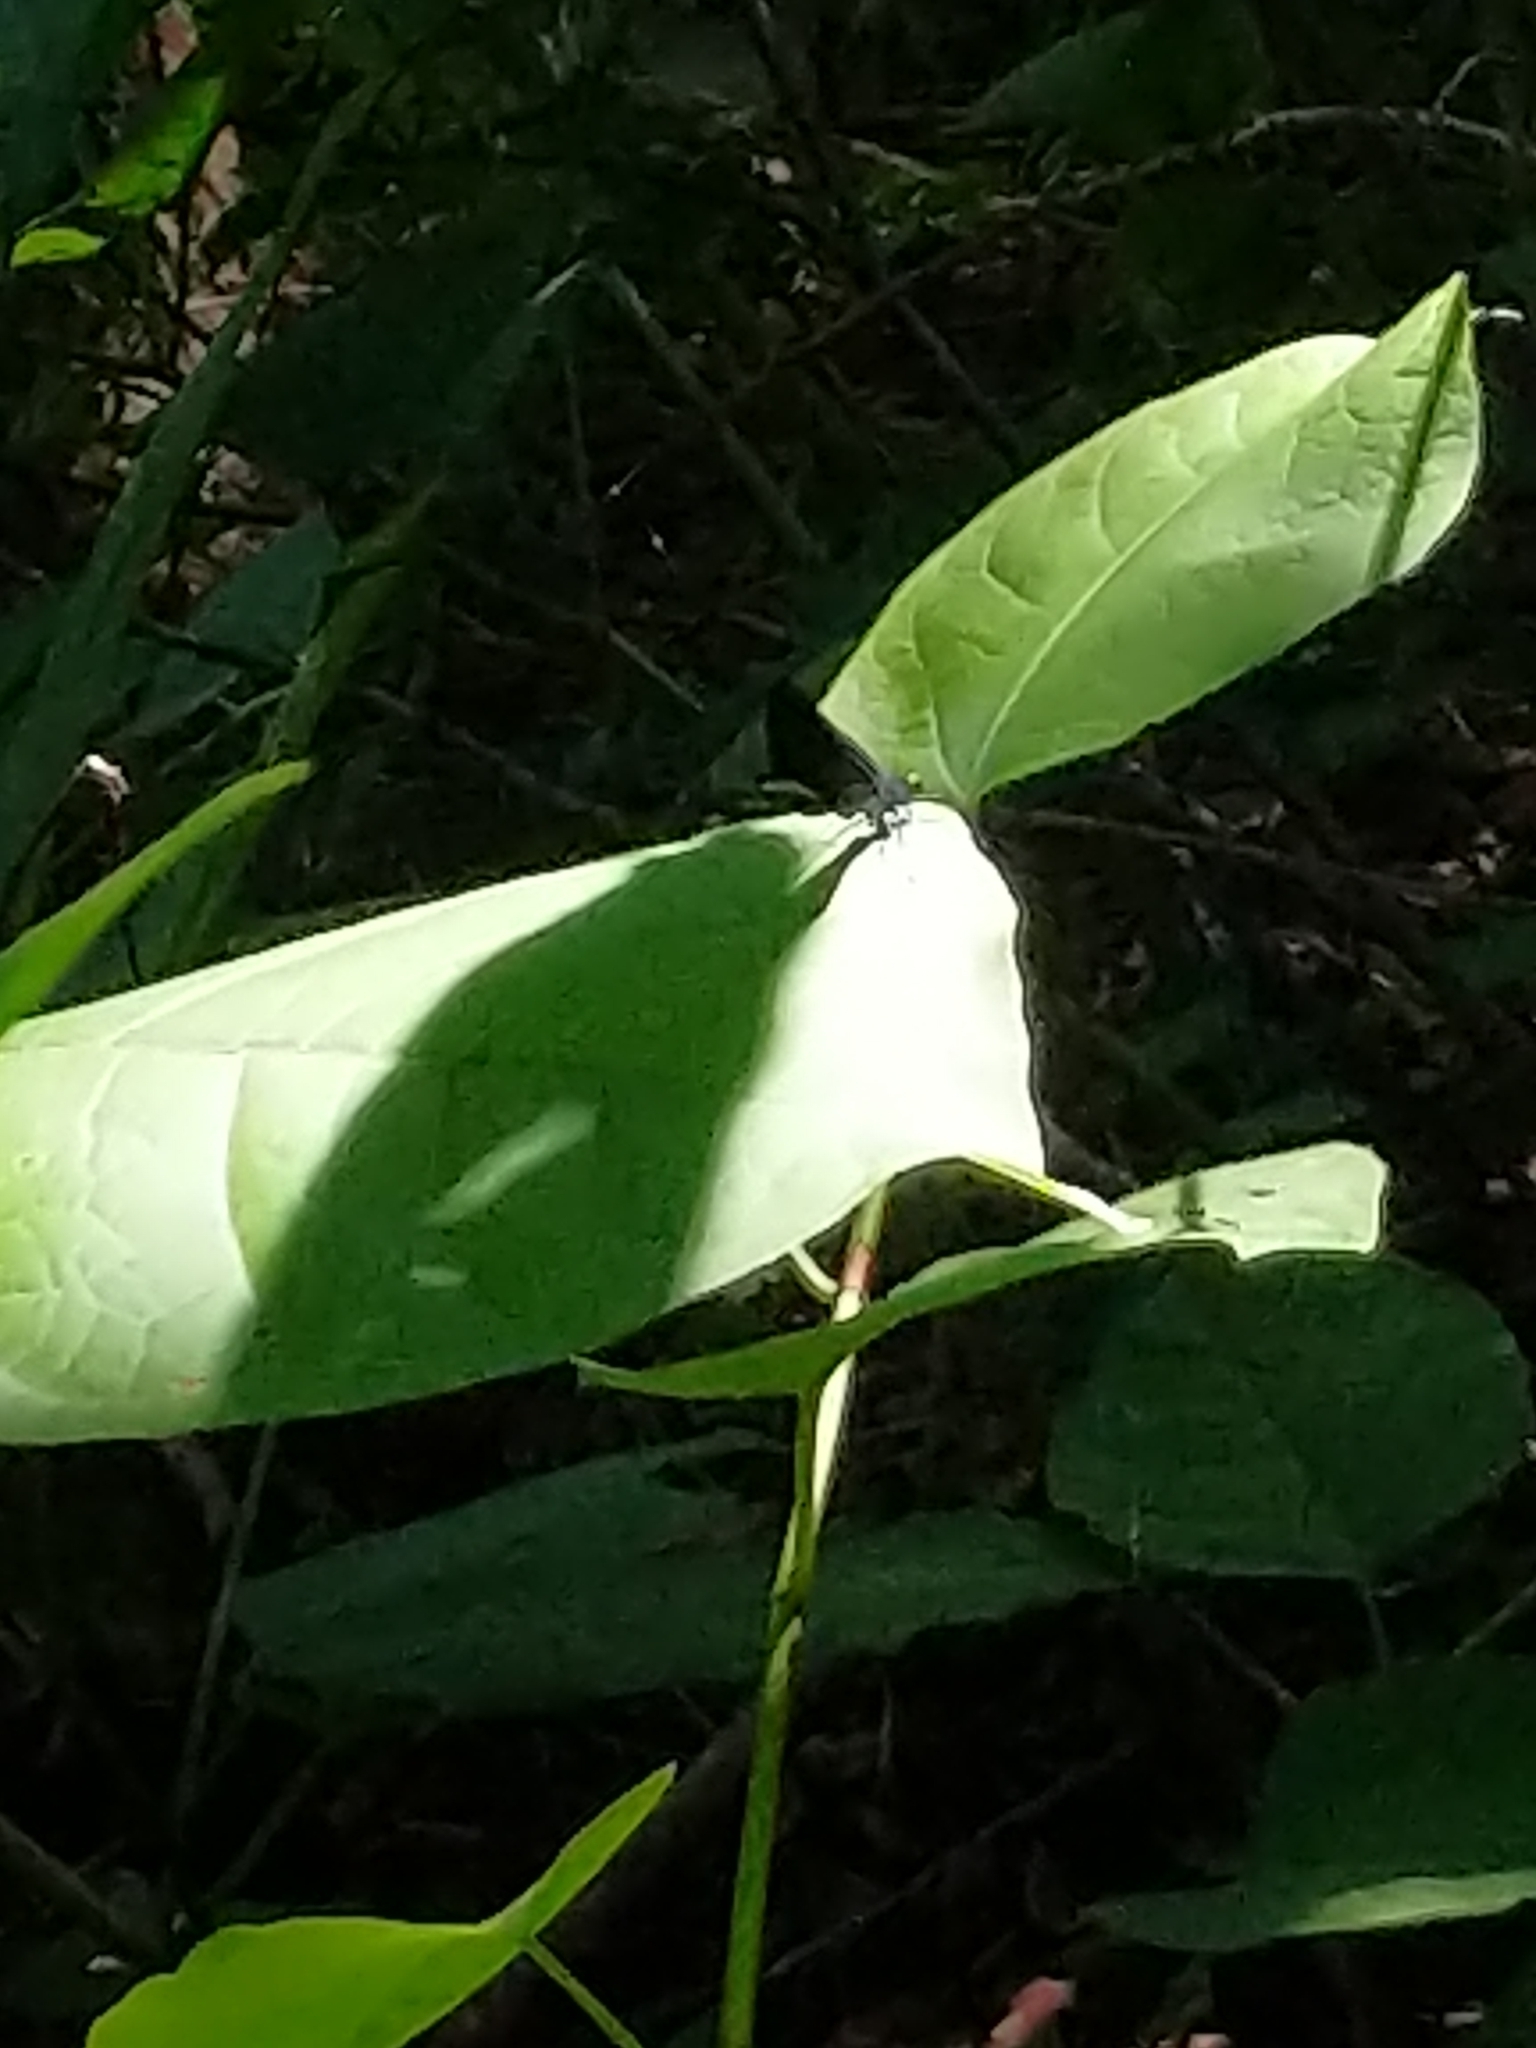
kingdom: Animalia
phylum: Arthropoda
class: Insecta
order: Odonata
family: Calopterygidae
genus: Calopteryx
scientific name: Calopteryx maculata
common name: Ebony jewelwing
